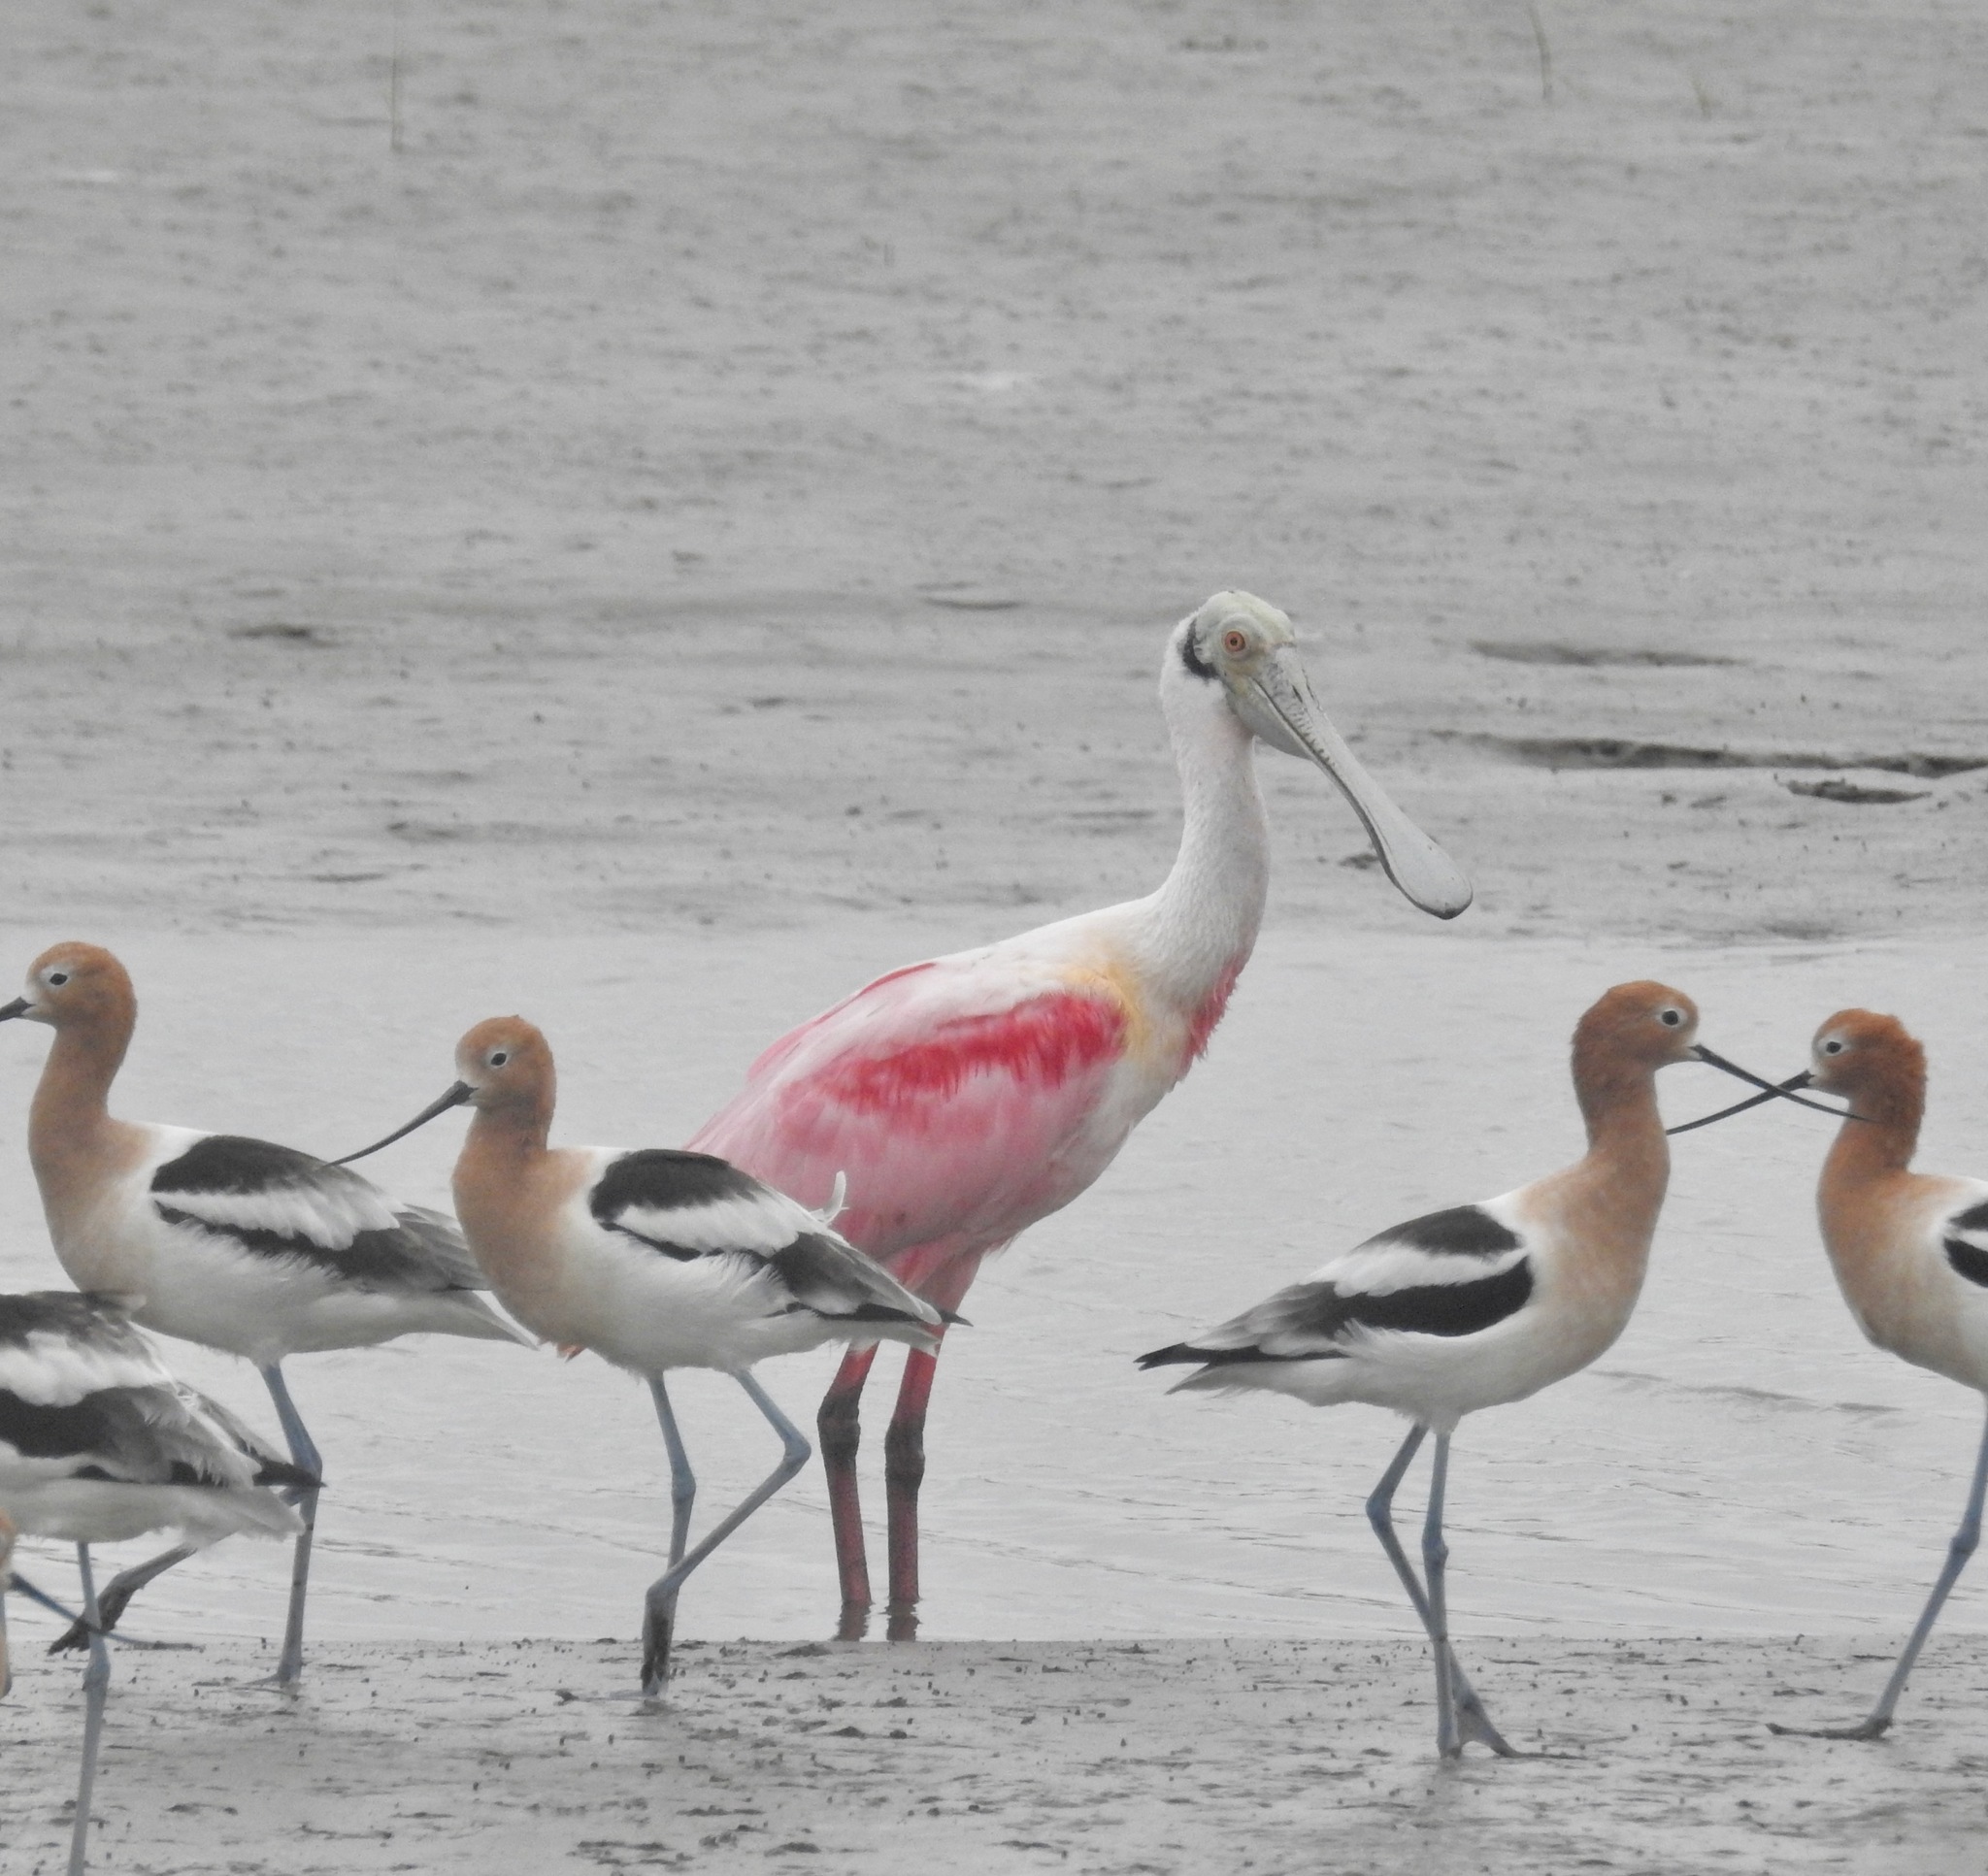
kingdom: Animalia
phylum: Chordata
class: Aves
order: Pelecaniformes
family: Threskiornithidae
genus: Platalea
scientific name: Platalea ajaja
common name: Roseate spoonbill
